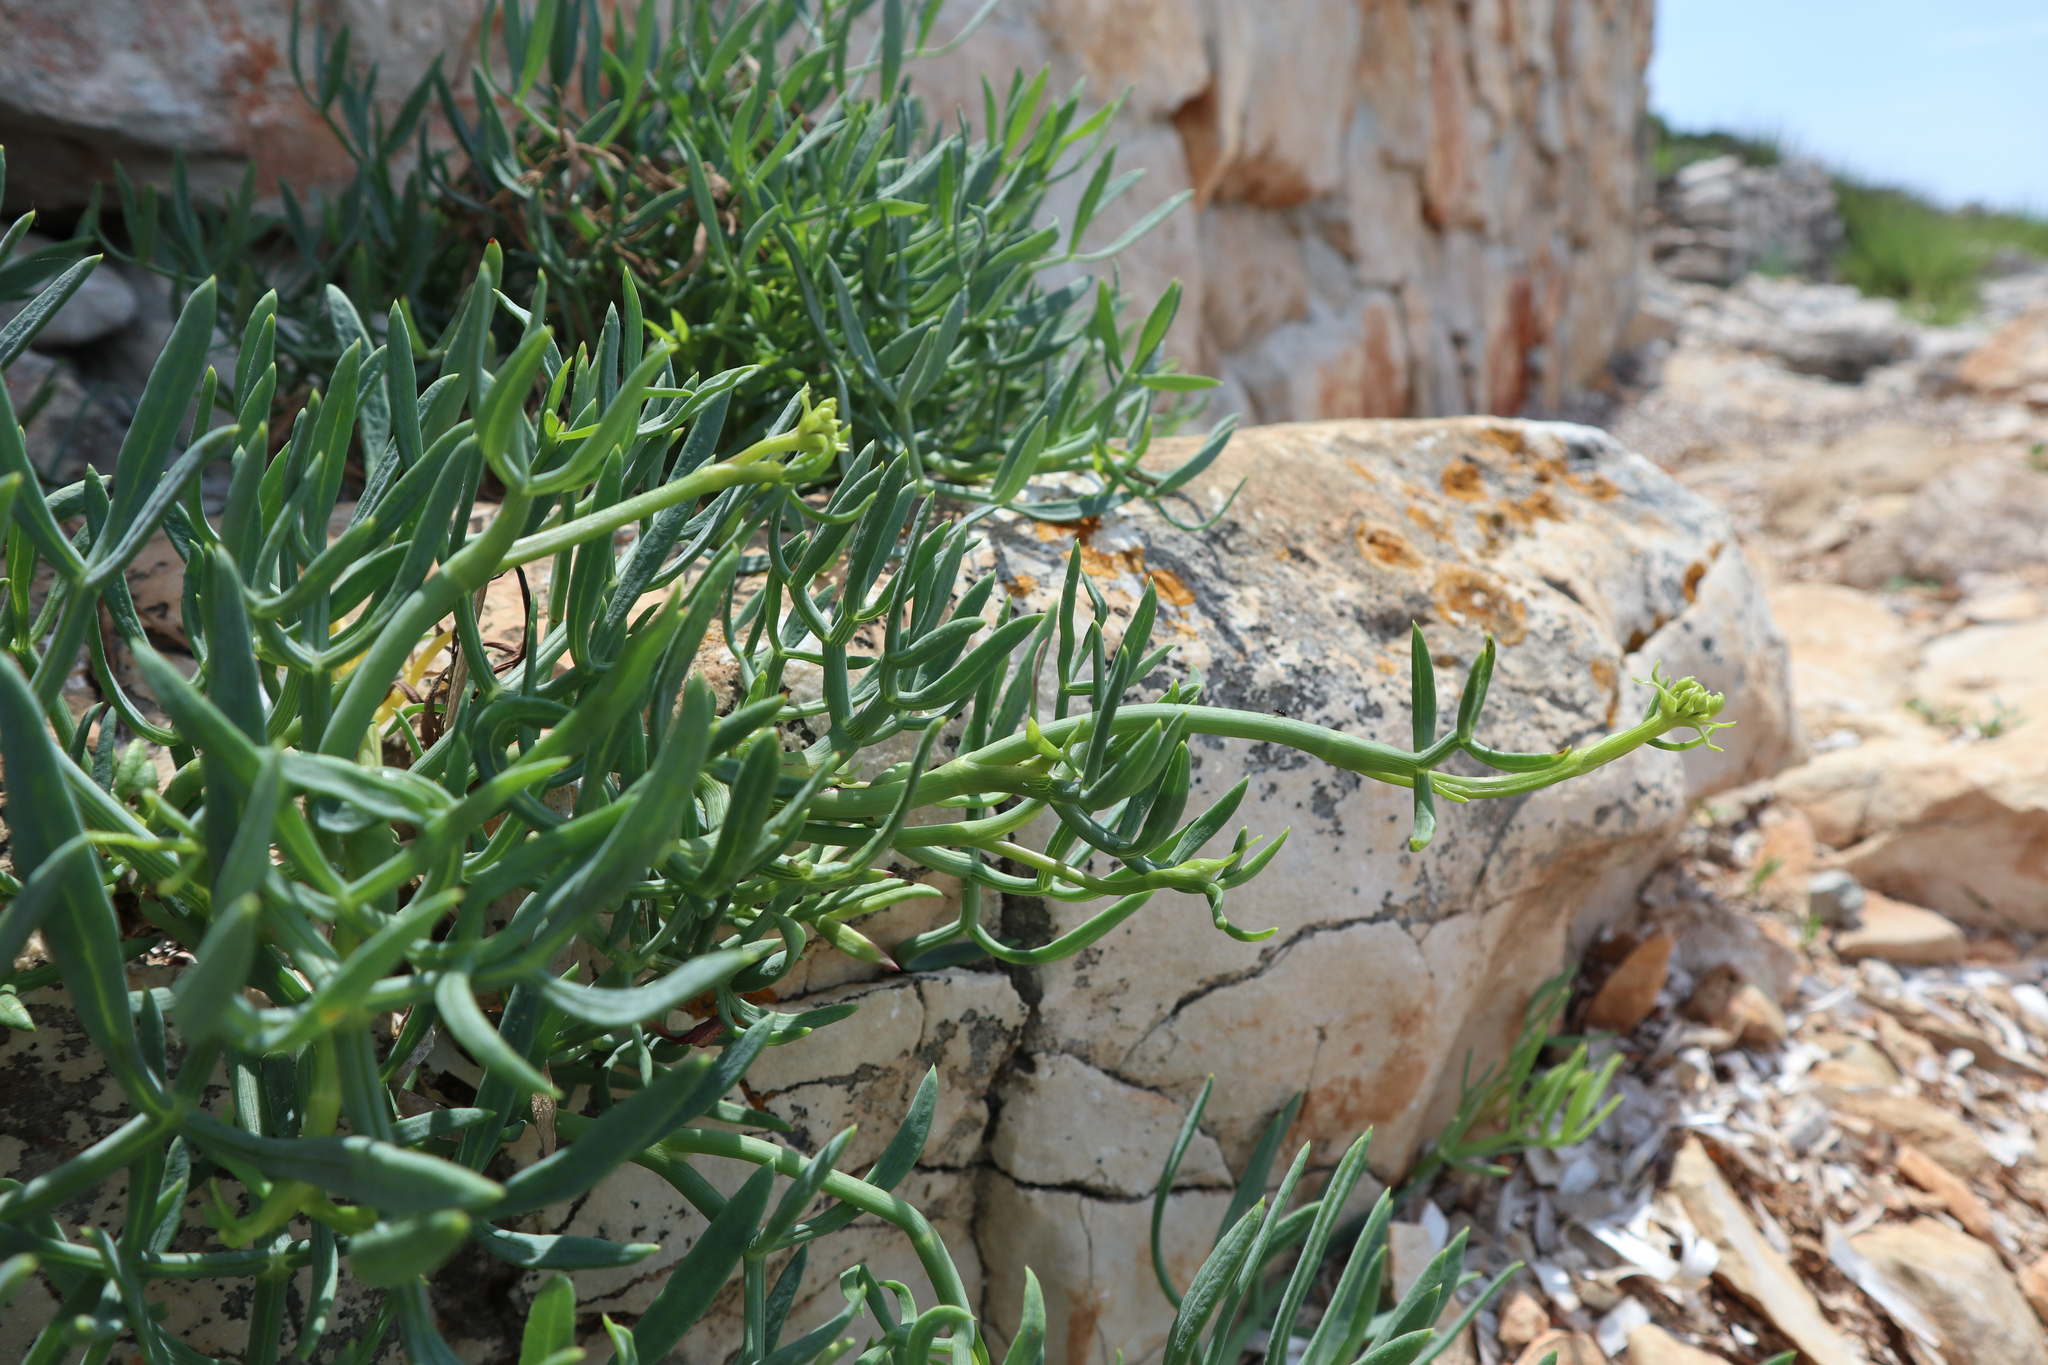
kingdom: Plantae
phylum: Tracheophyta
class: Magnoliopsida
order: Apiales
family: Apiaceae
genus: Crithmum
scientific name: Crithmum maritimum
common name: Rock samphire
